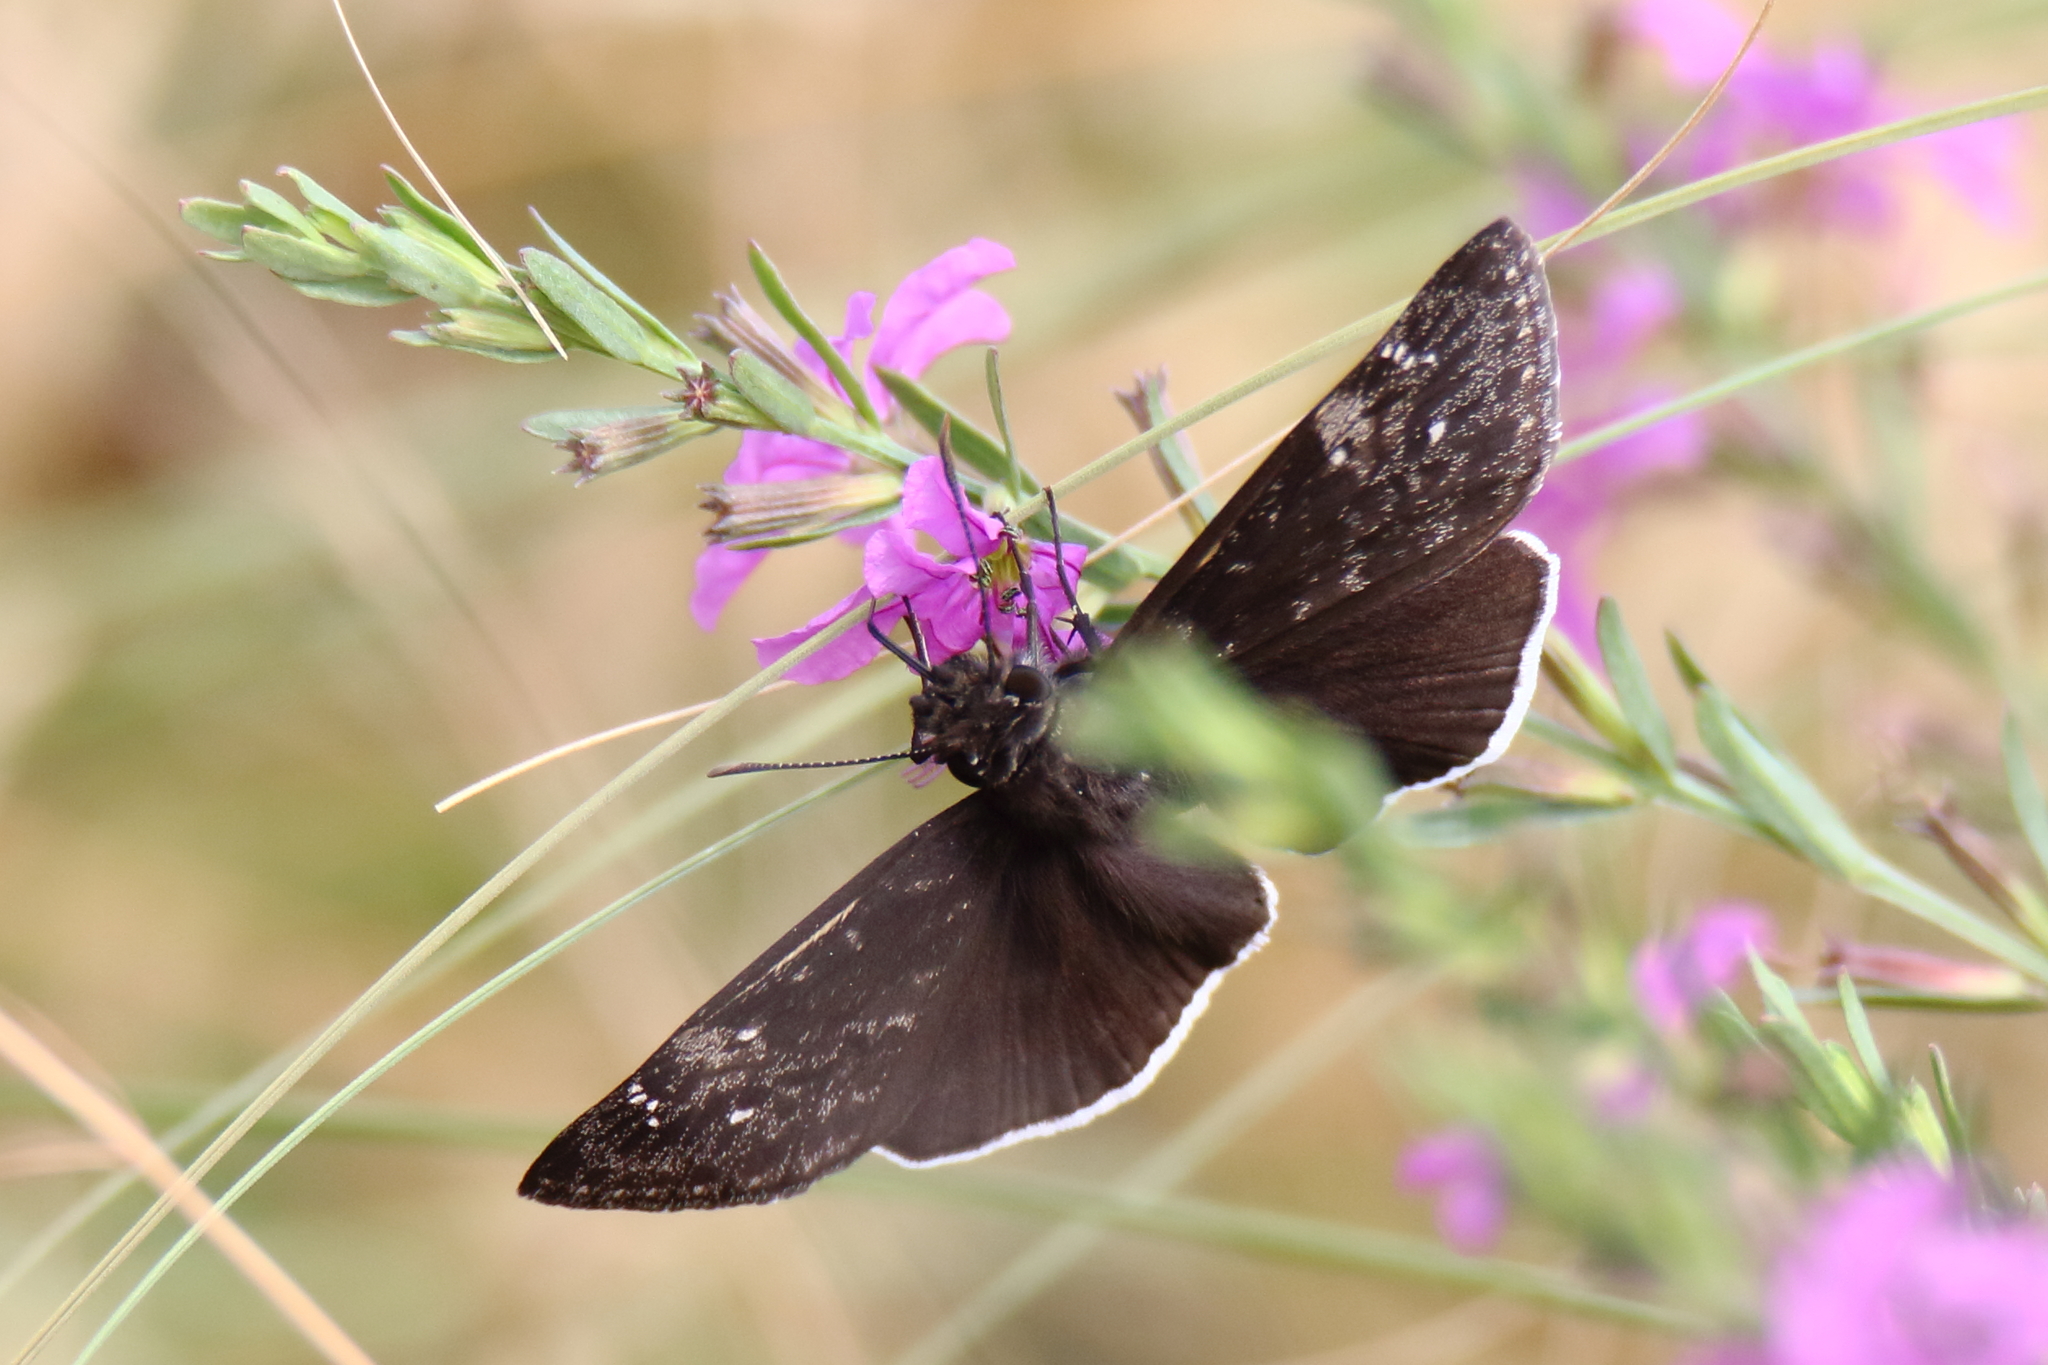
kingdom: Animalia
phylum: Arthropoda
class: Insecta
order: Lepidoptera
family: Hesperiidae
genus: Erynnis
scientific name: Erynnis funeralis
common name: Funereal duskywing
